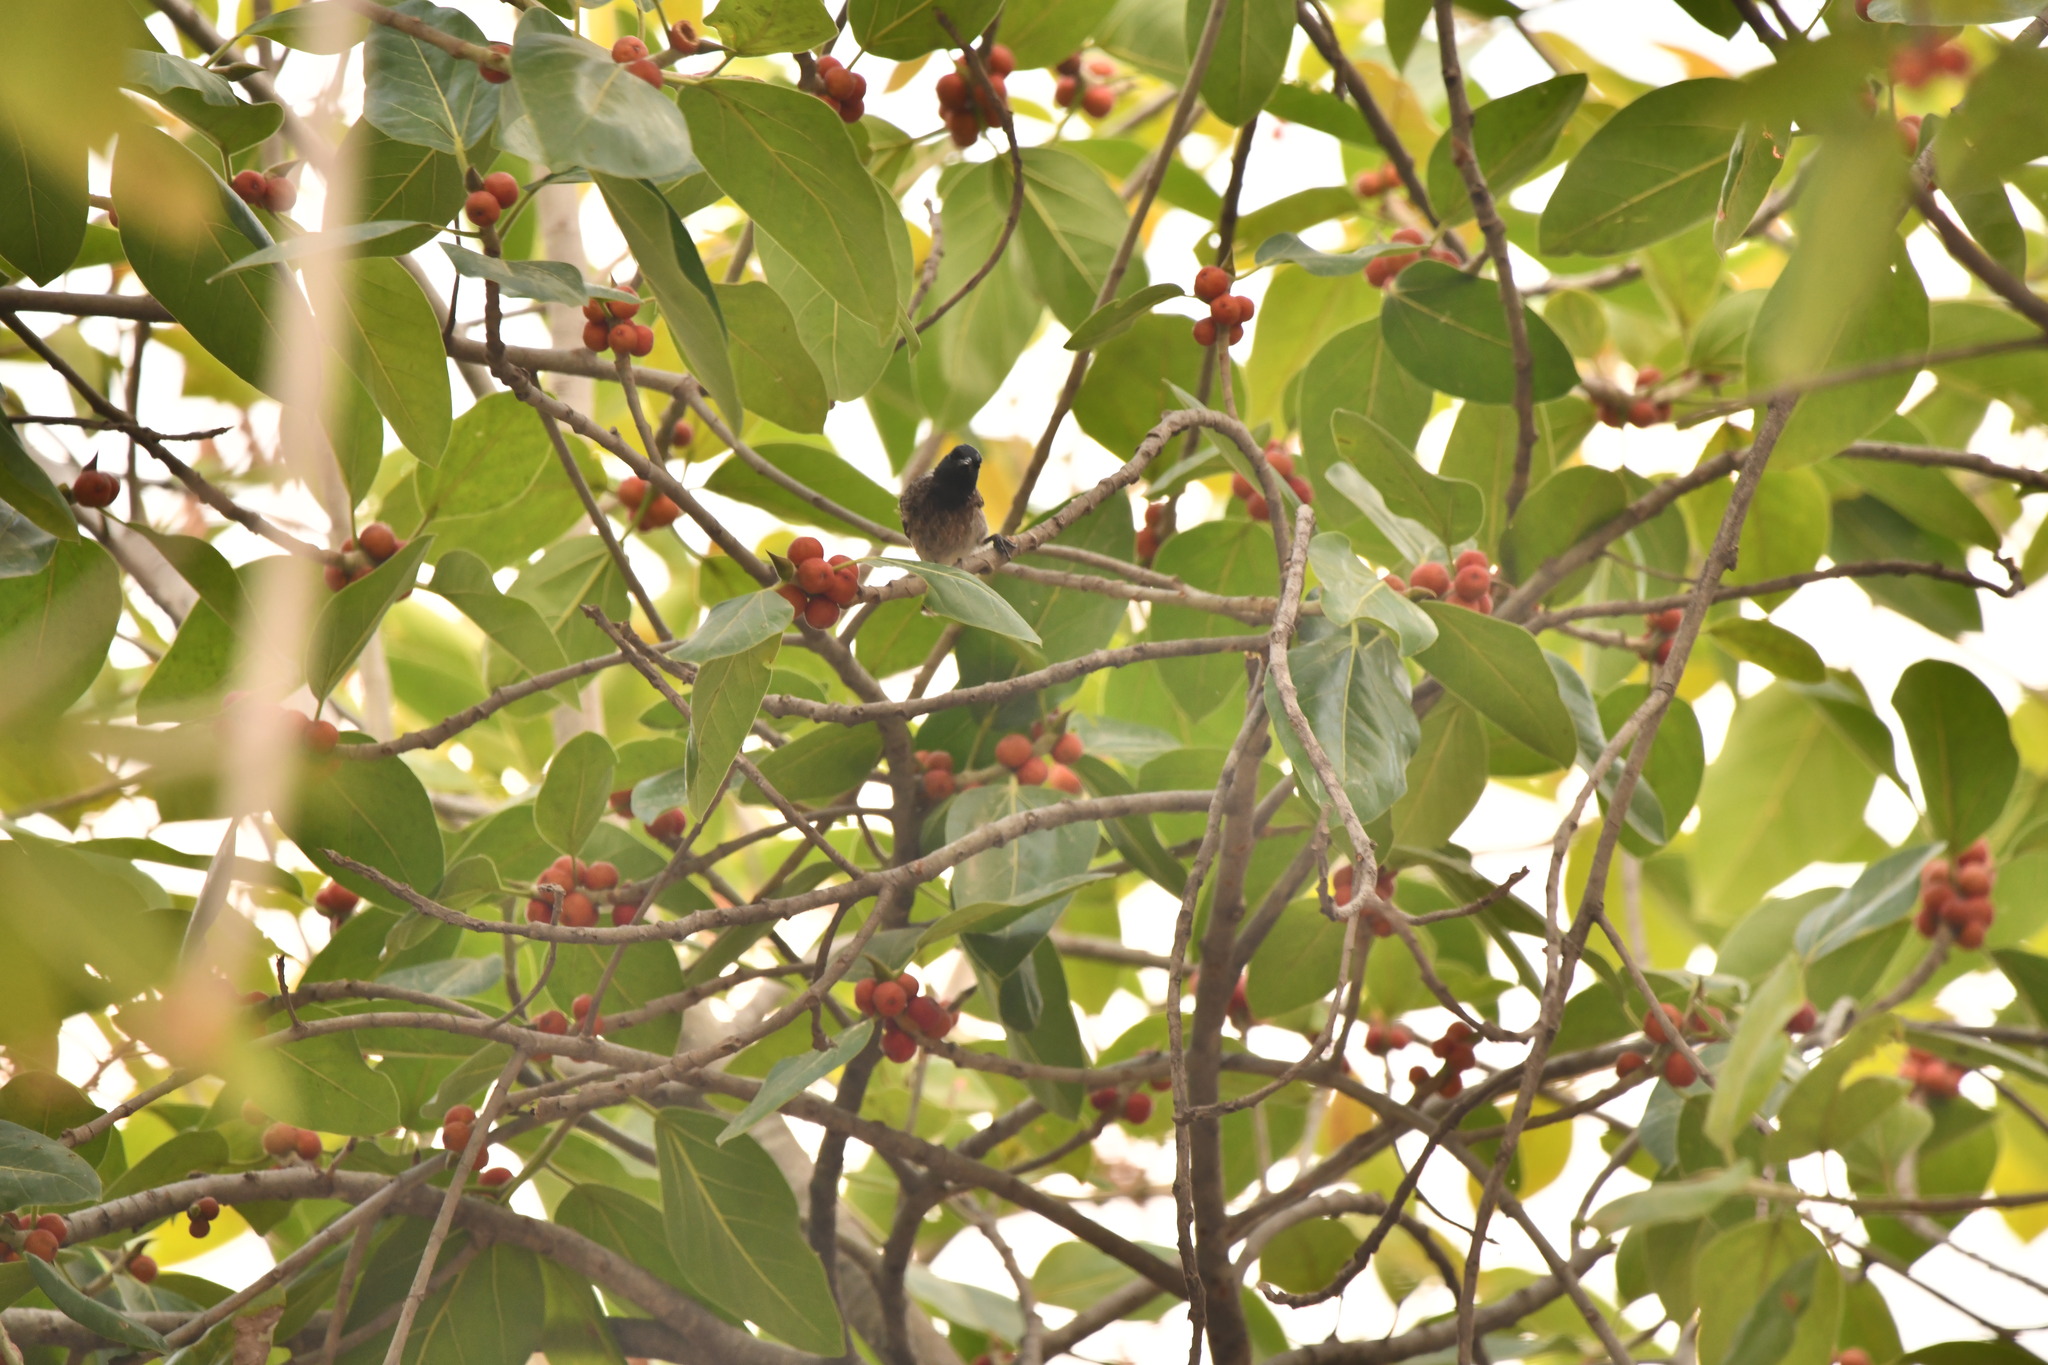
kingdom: Animalia
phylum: Chordata
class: Aves
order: Passeriformes
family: Pycnonotidae
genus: Pycnonotus
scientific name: Pycnonotus cafer
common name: Red-vented bulbul
